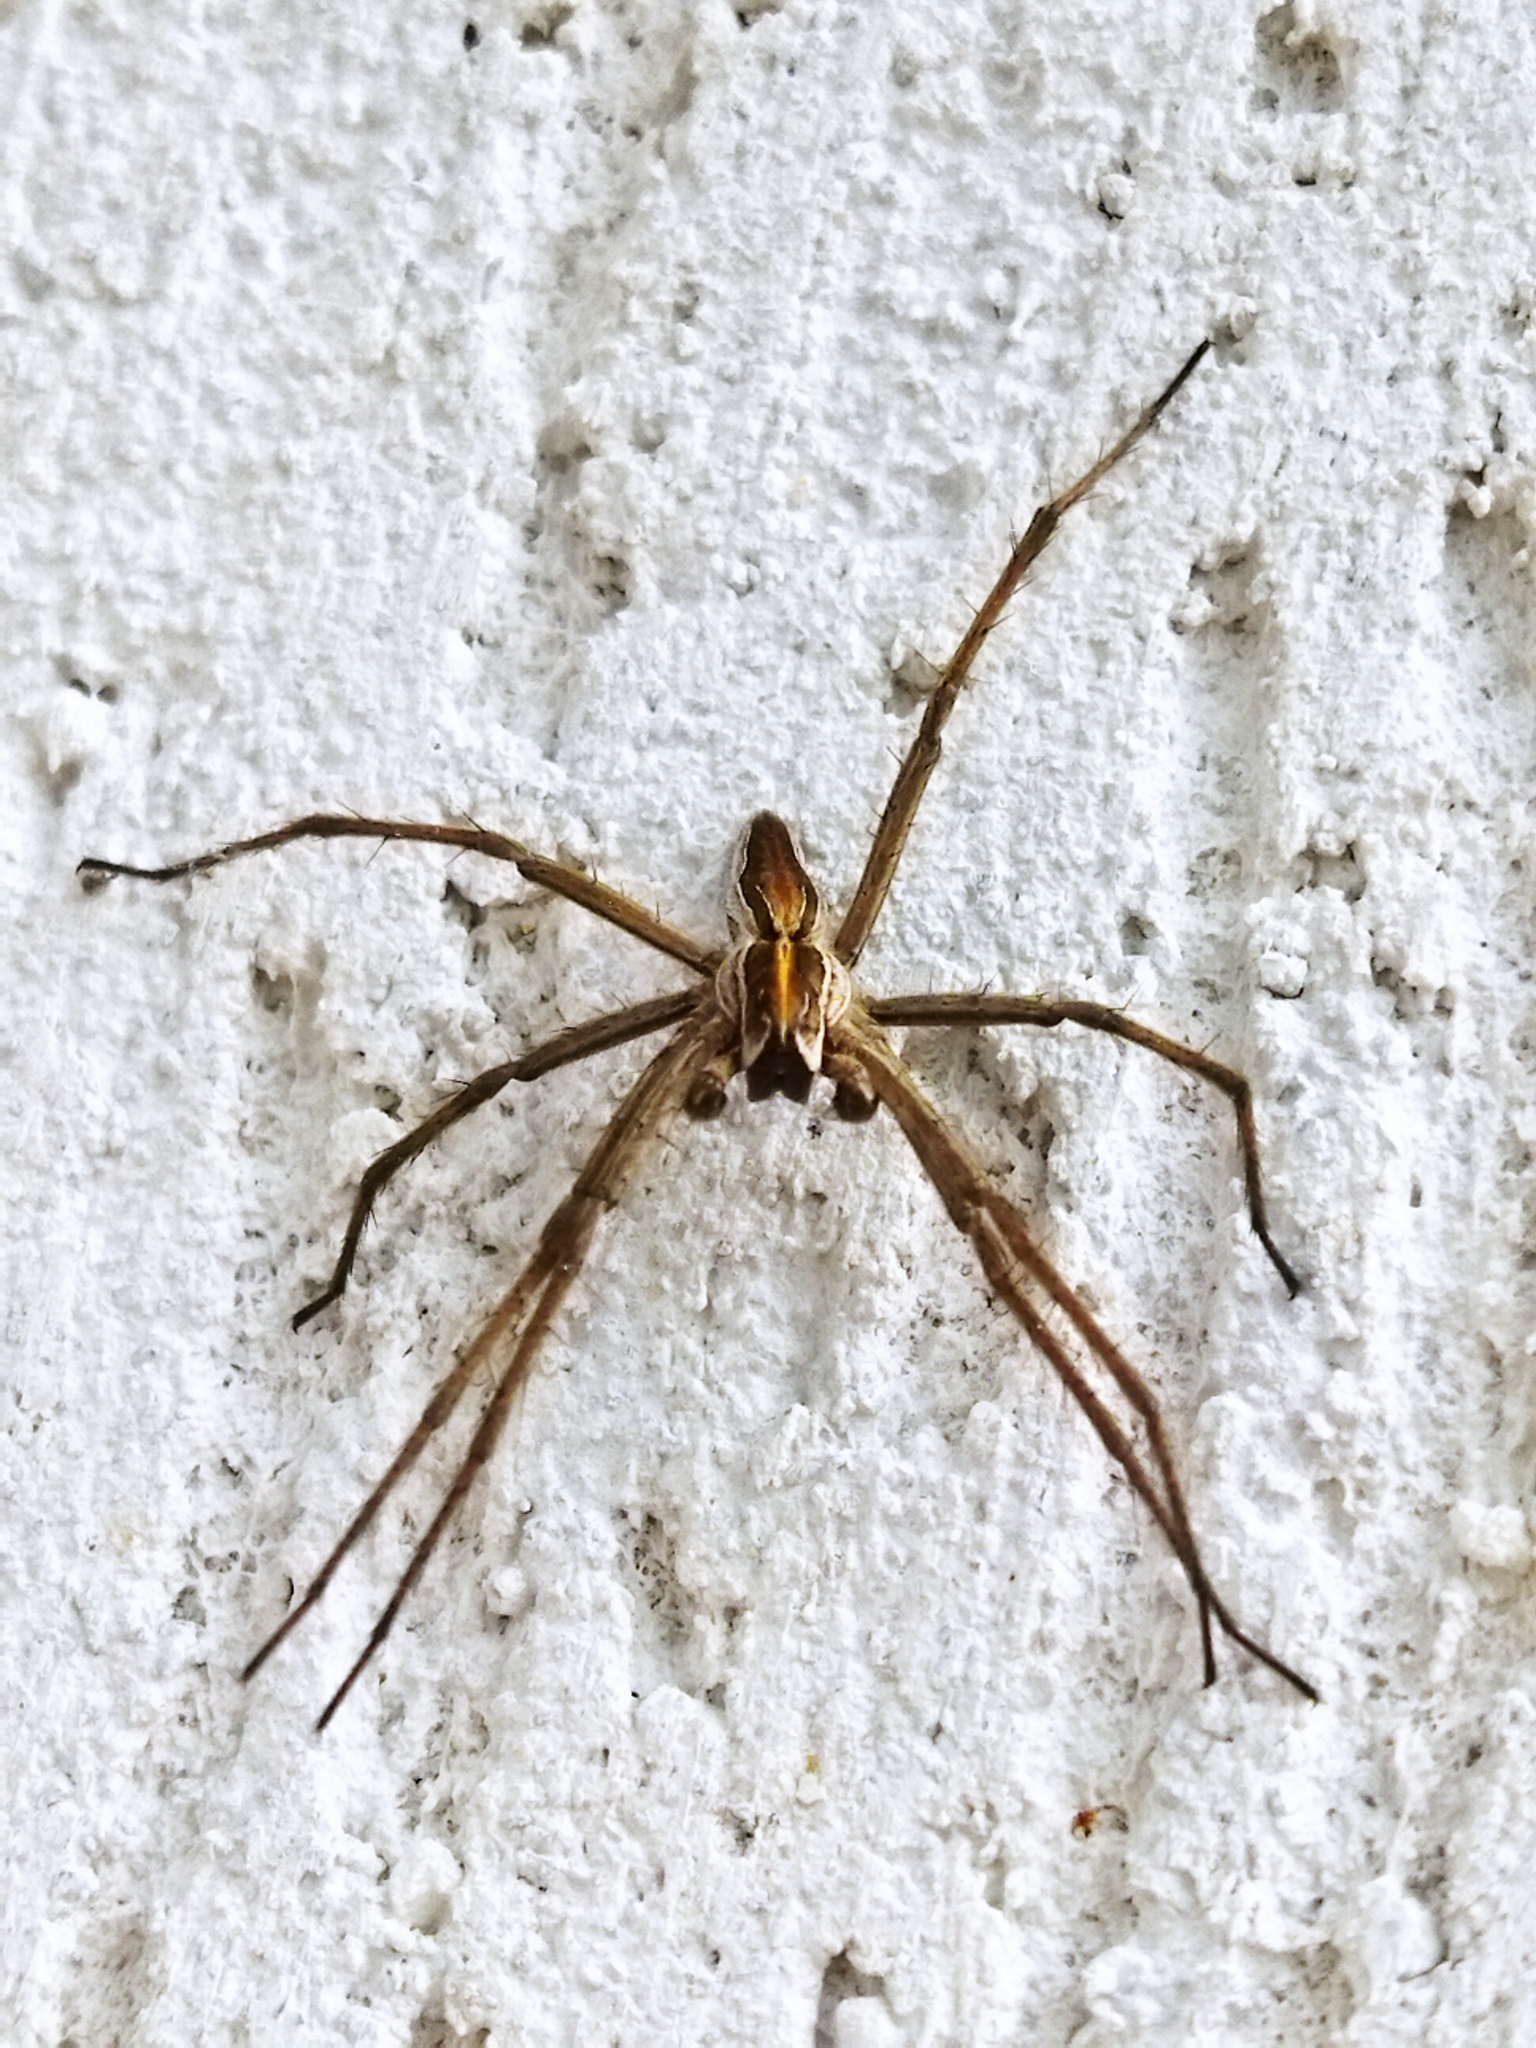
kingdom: Animalia
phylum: Arthropoda
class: Arachnida
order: Araneae
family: Pisauridae
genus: Pisaura
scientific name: Pisaura
